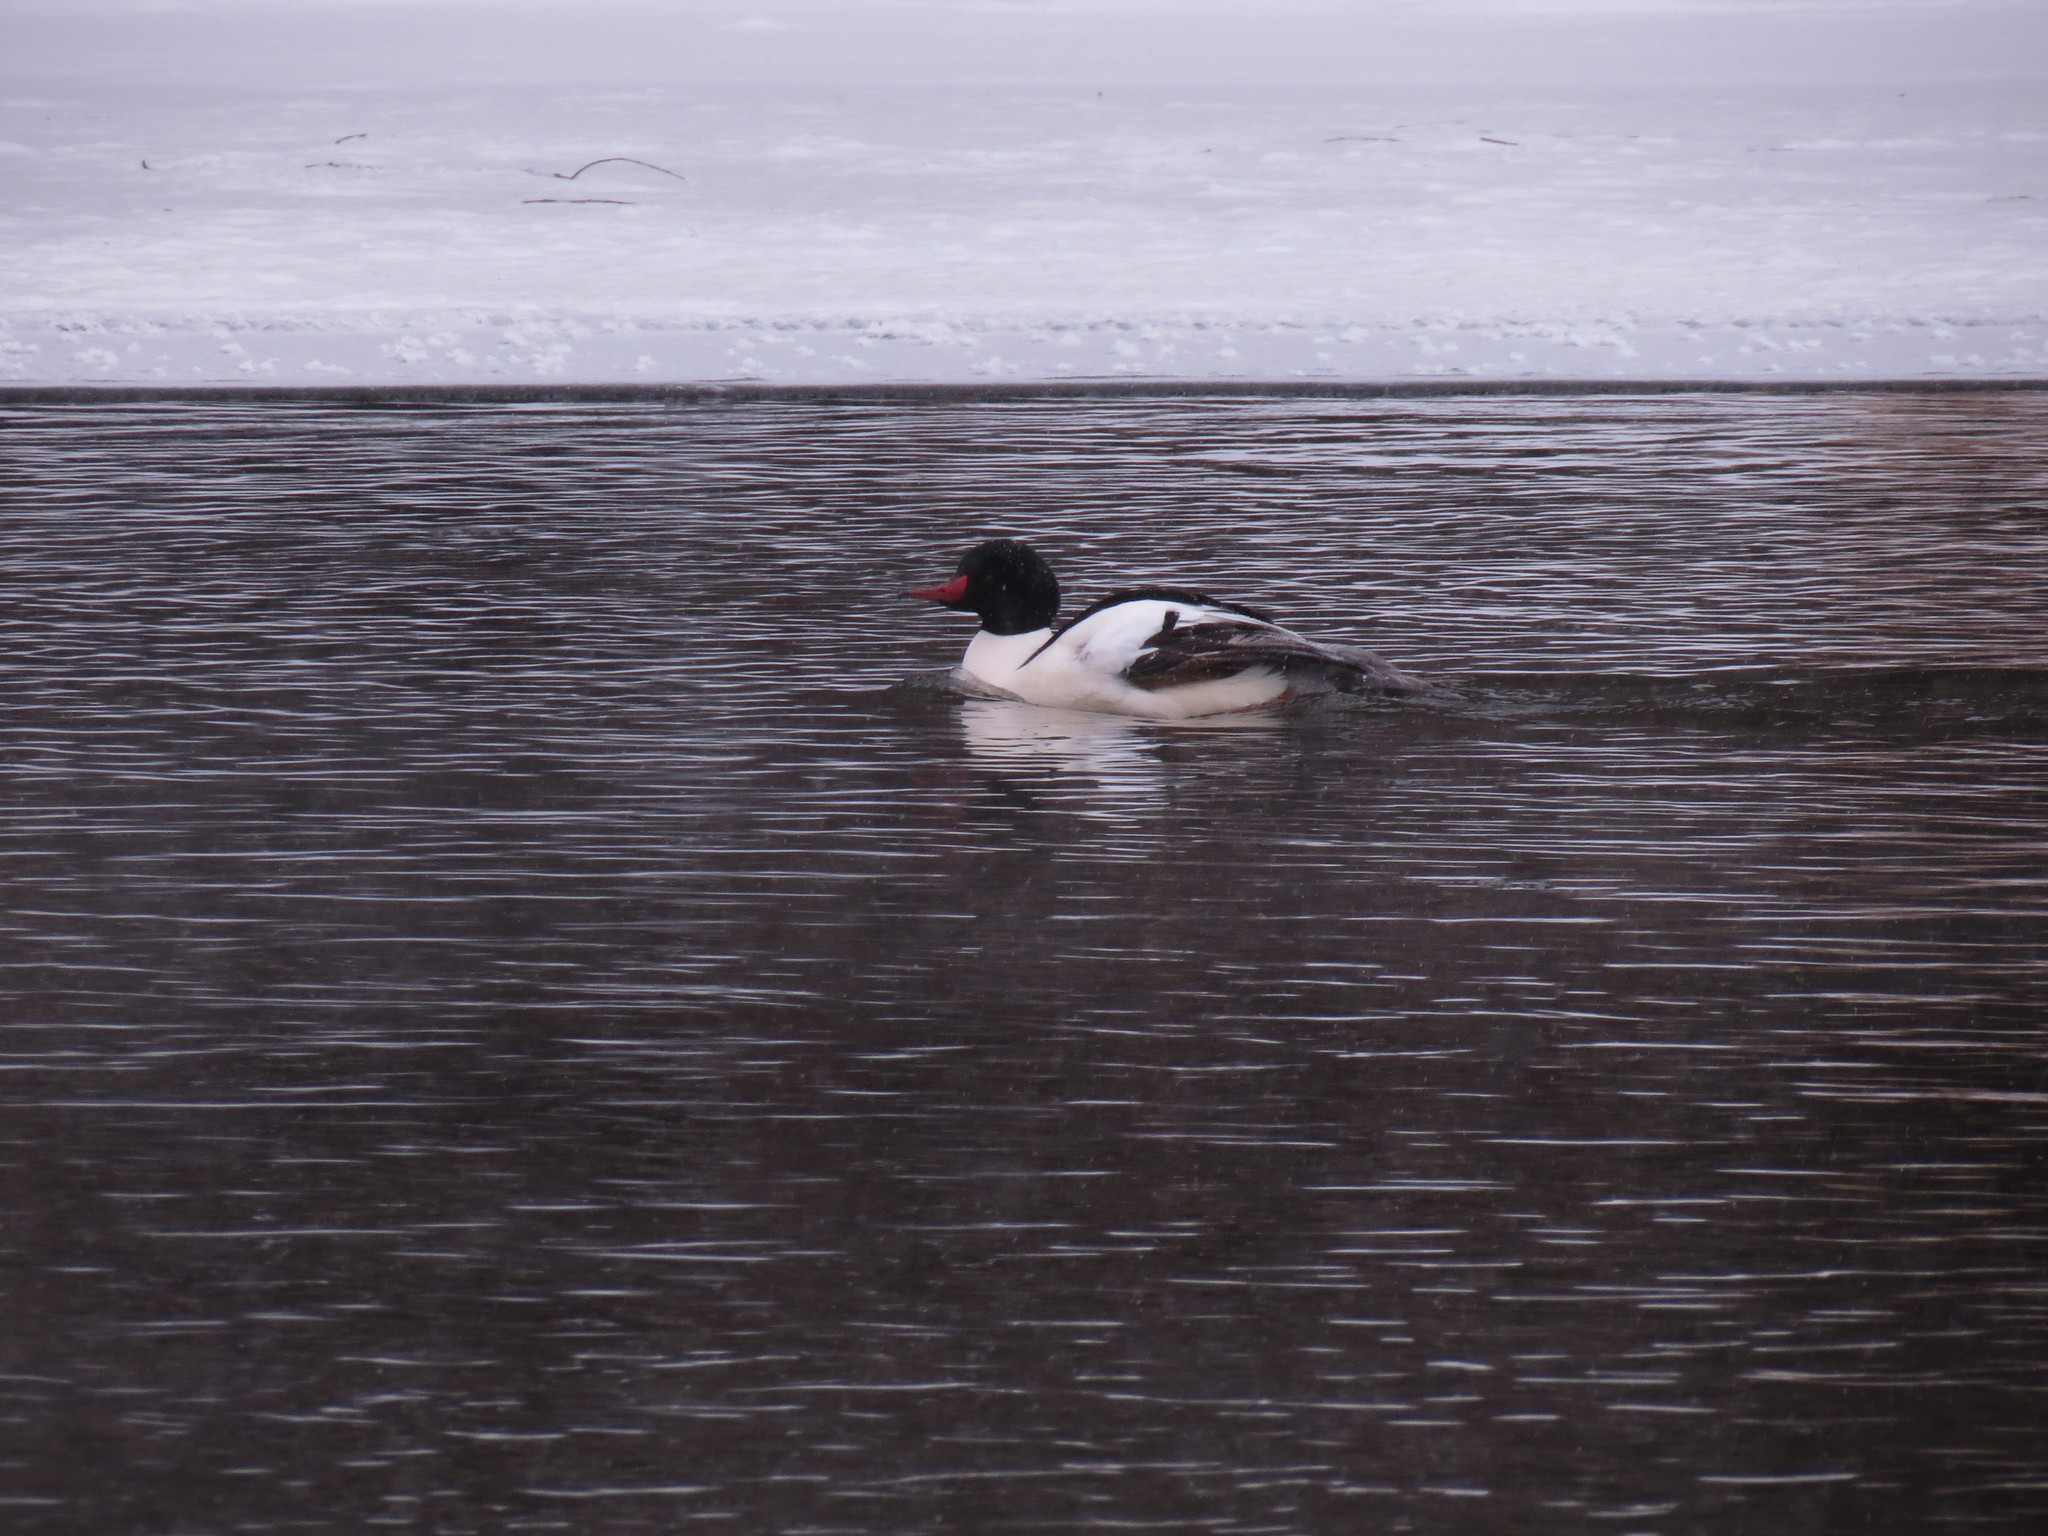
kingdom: Animalia
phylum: Chordata
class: Aves
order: Anseriformes
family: Anatidae
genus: Mergus
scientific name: Mergus merganser
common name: Common merganser
